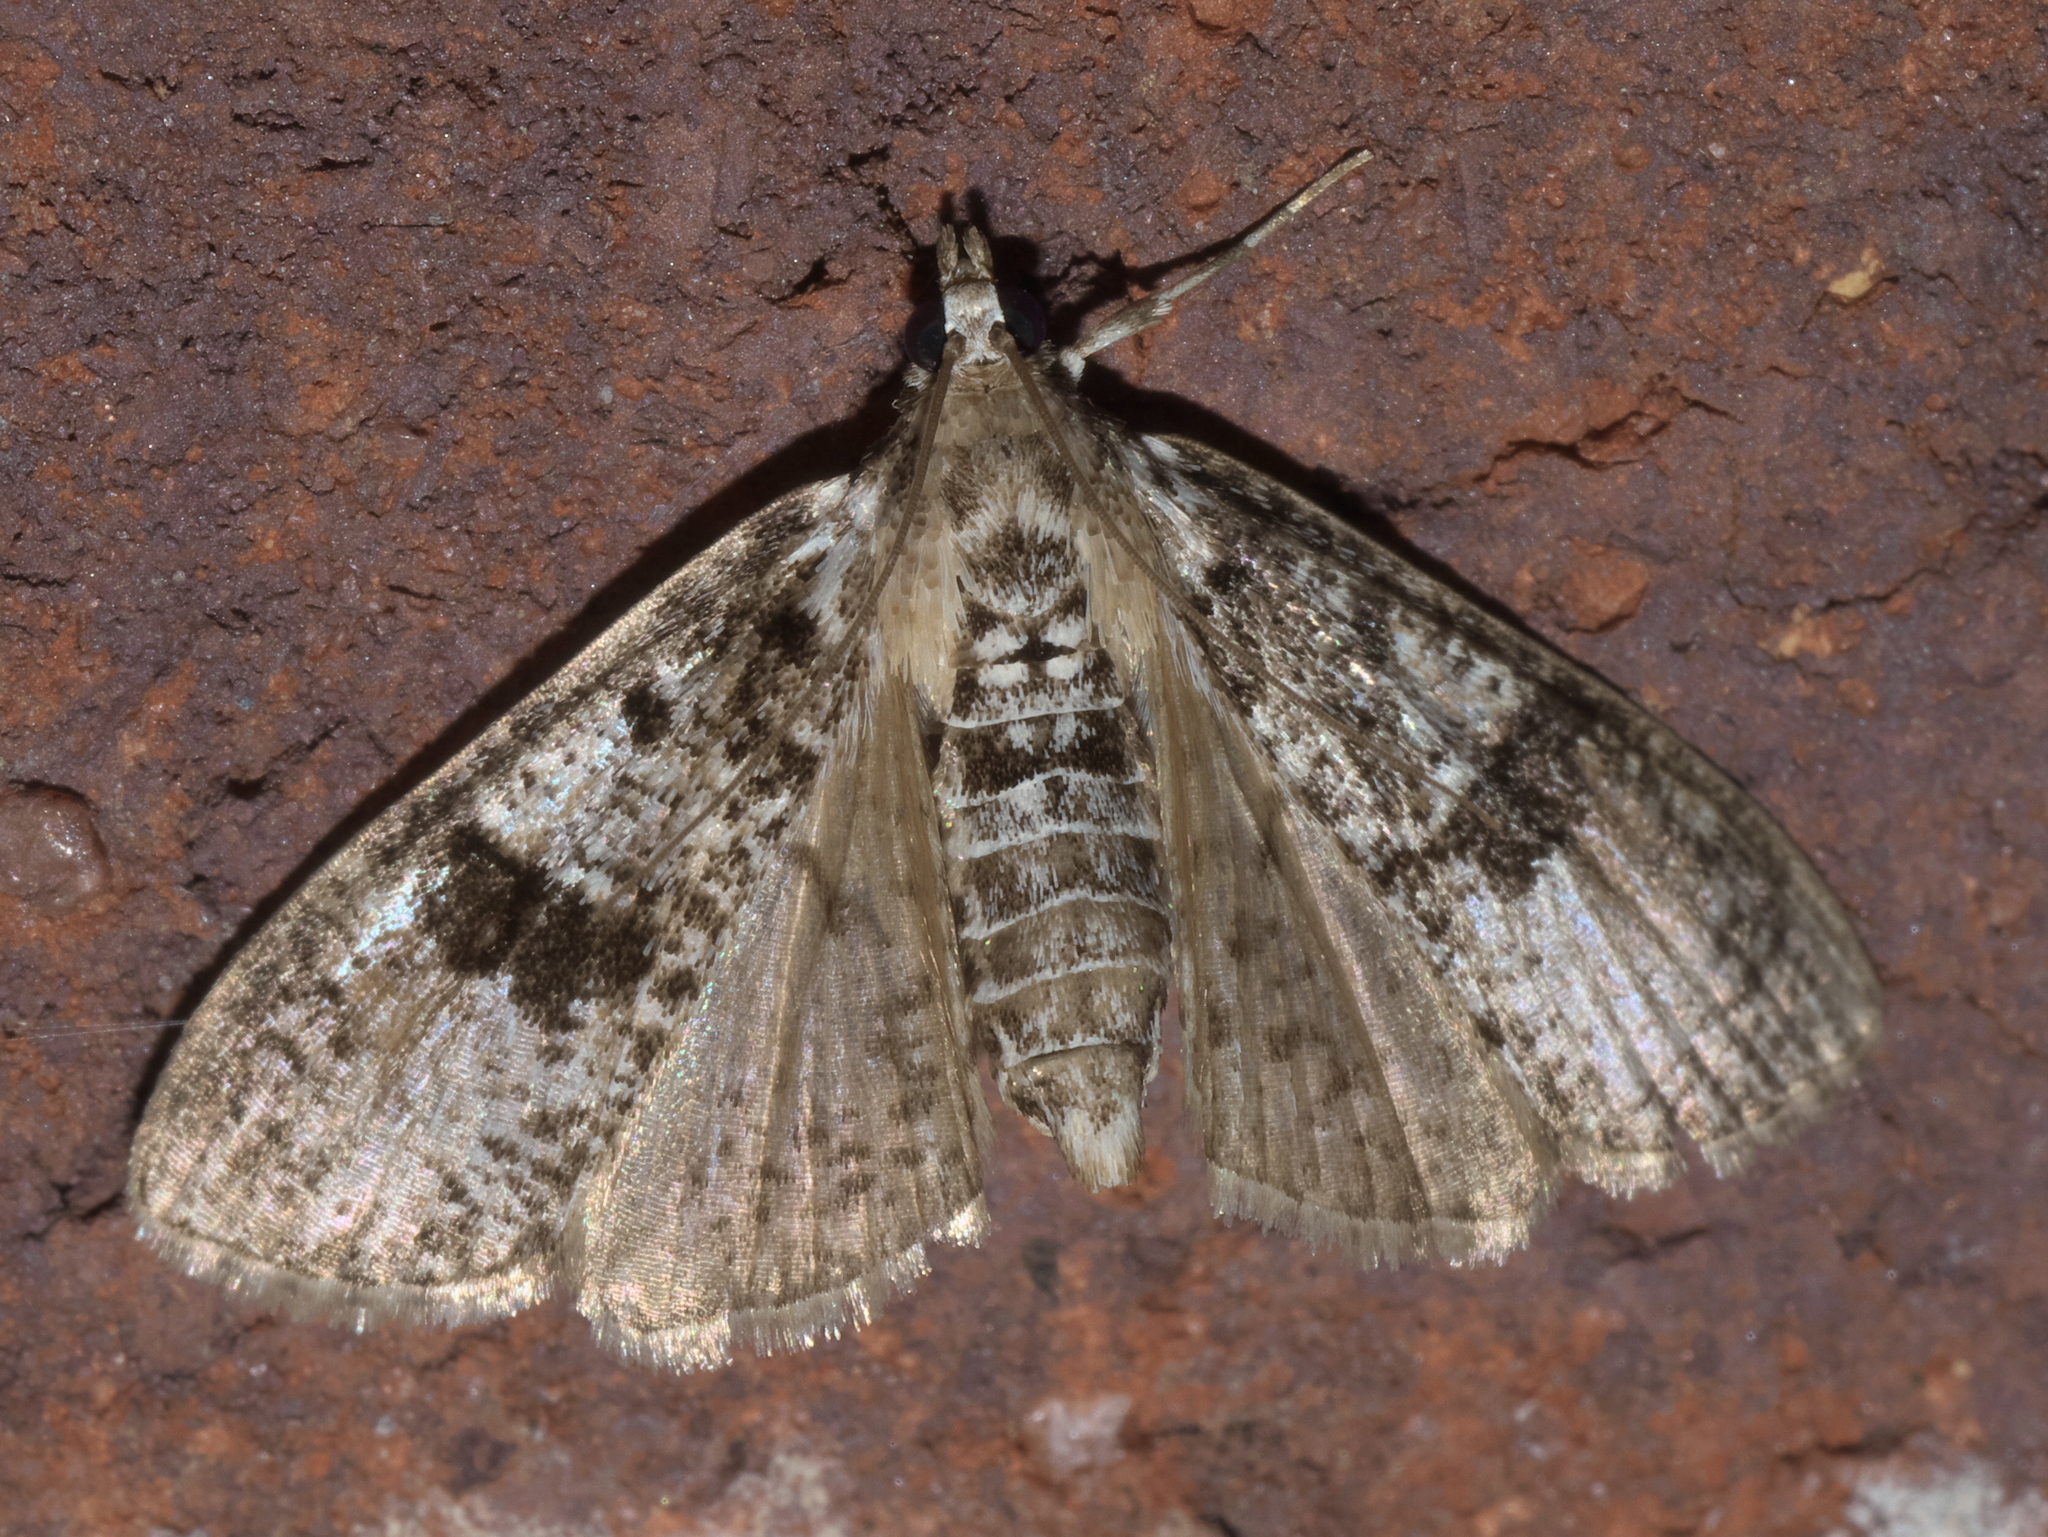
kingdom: Animalia
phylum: Arthropoda
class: Insecta
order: Lepidoptera
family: Crambidae
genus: Palpita
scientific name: Palpita magniferalis
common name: Splendid palpita moth
